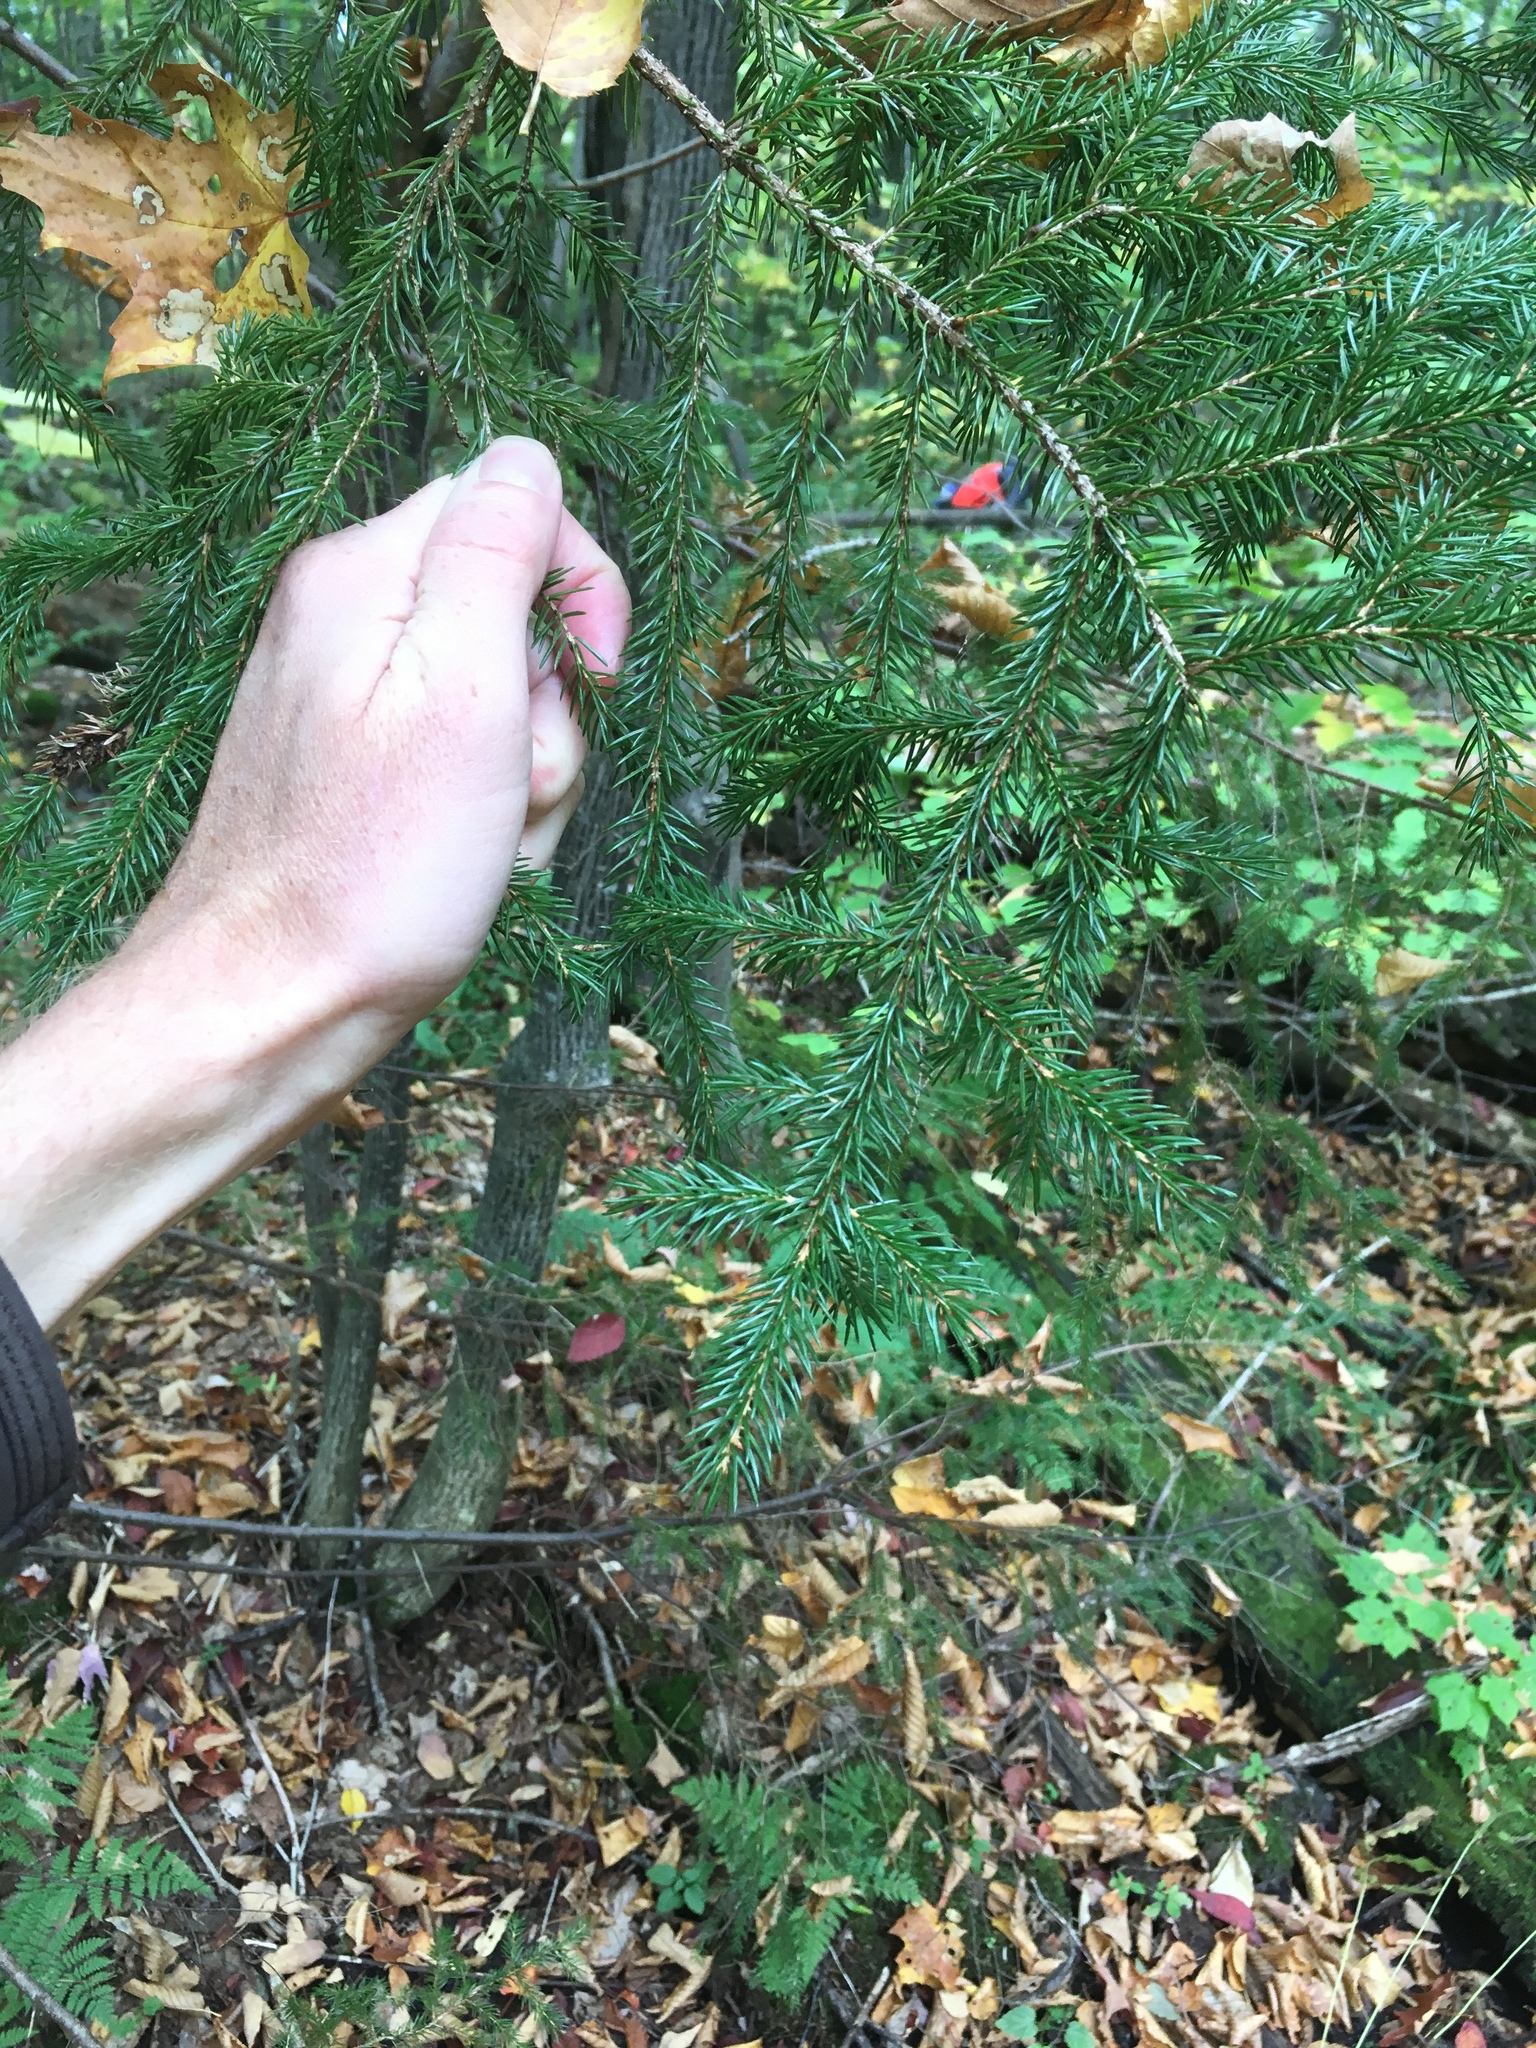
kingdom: Plantae
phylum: Tracheophyta
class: Pinopsida
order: Pinales
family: Pinaceae
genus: Picea
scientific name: Picea rubens
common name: Red spruce
